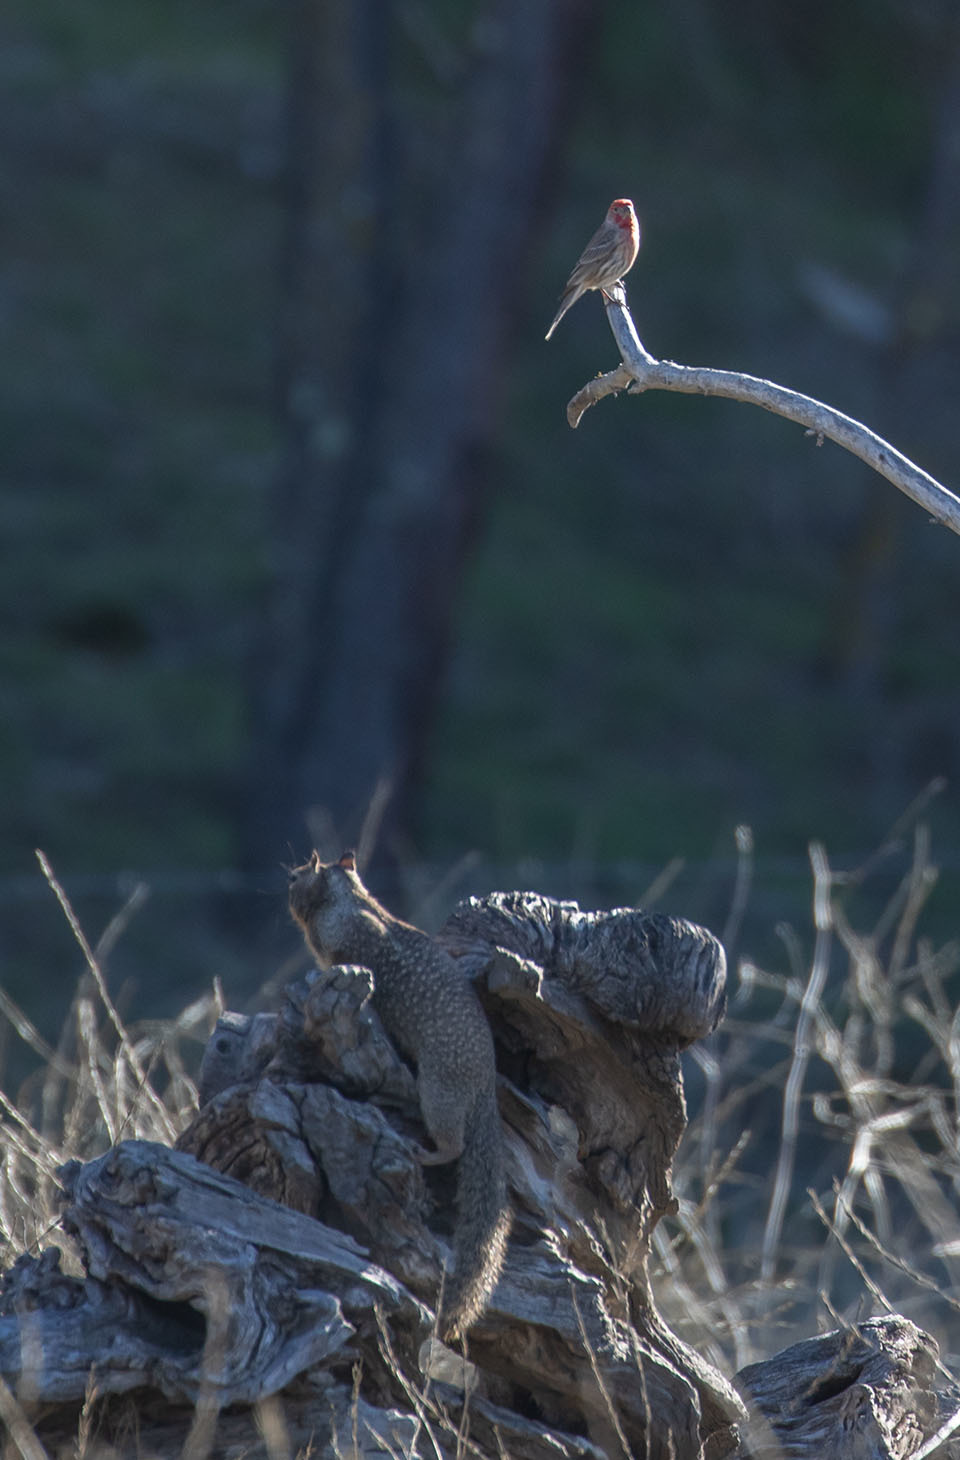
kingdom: Animalia
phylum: Chordata
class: Mammalia
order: Rodentia
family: Sciuridae
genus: Otospermophilus
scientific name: Otospermophilus beecheyi
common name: California ground squirrel
